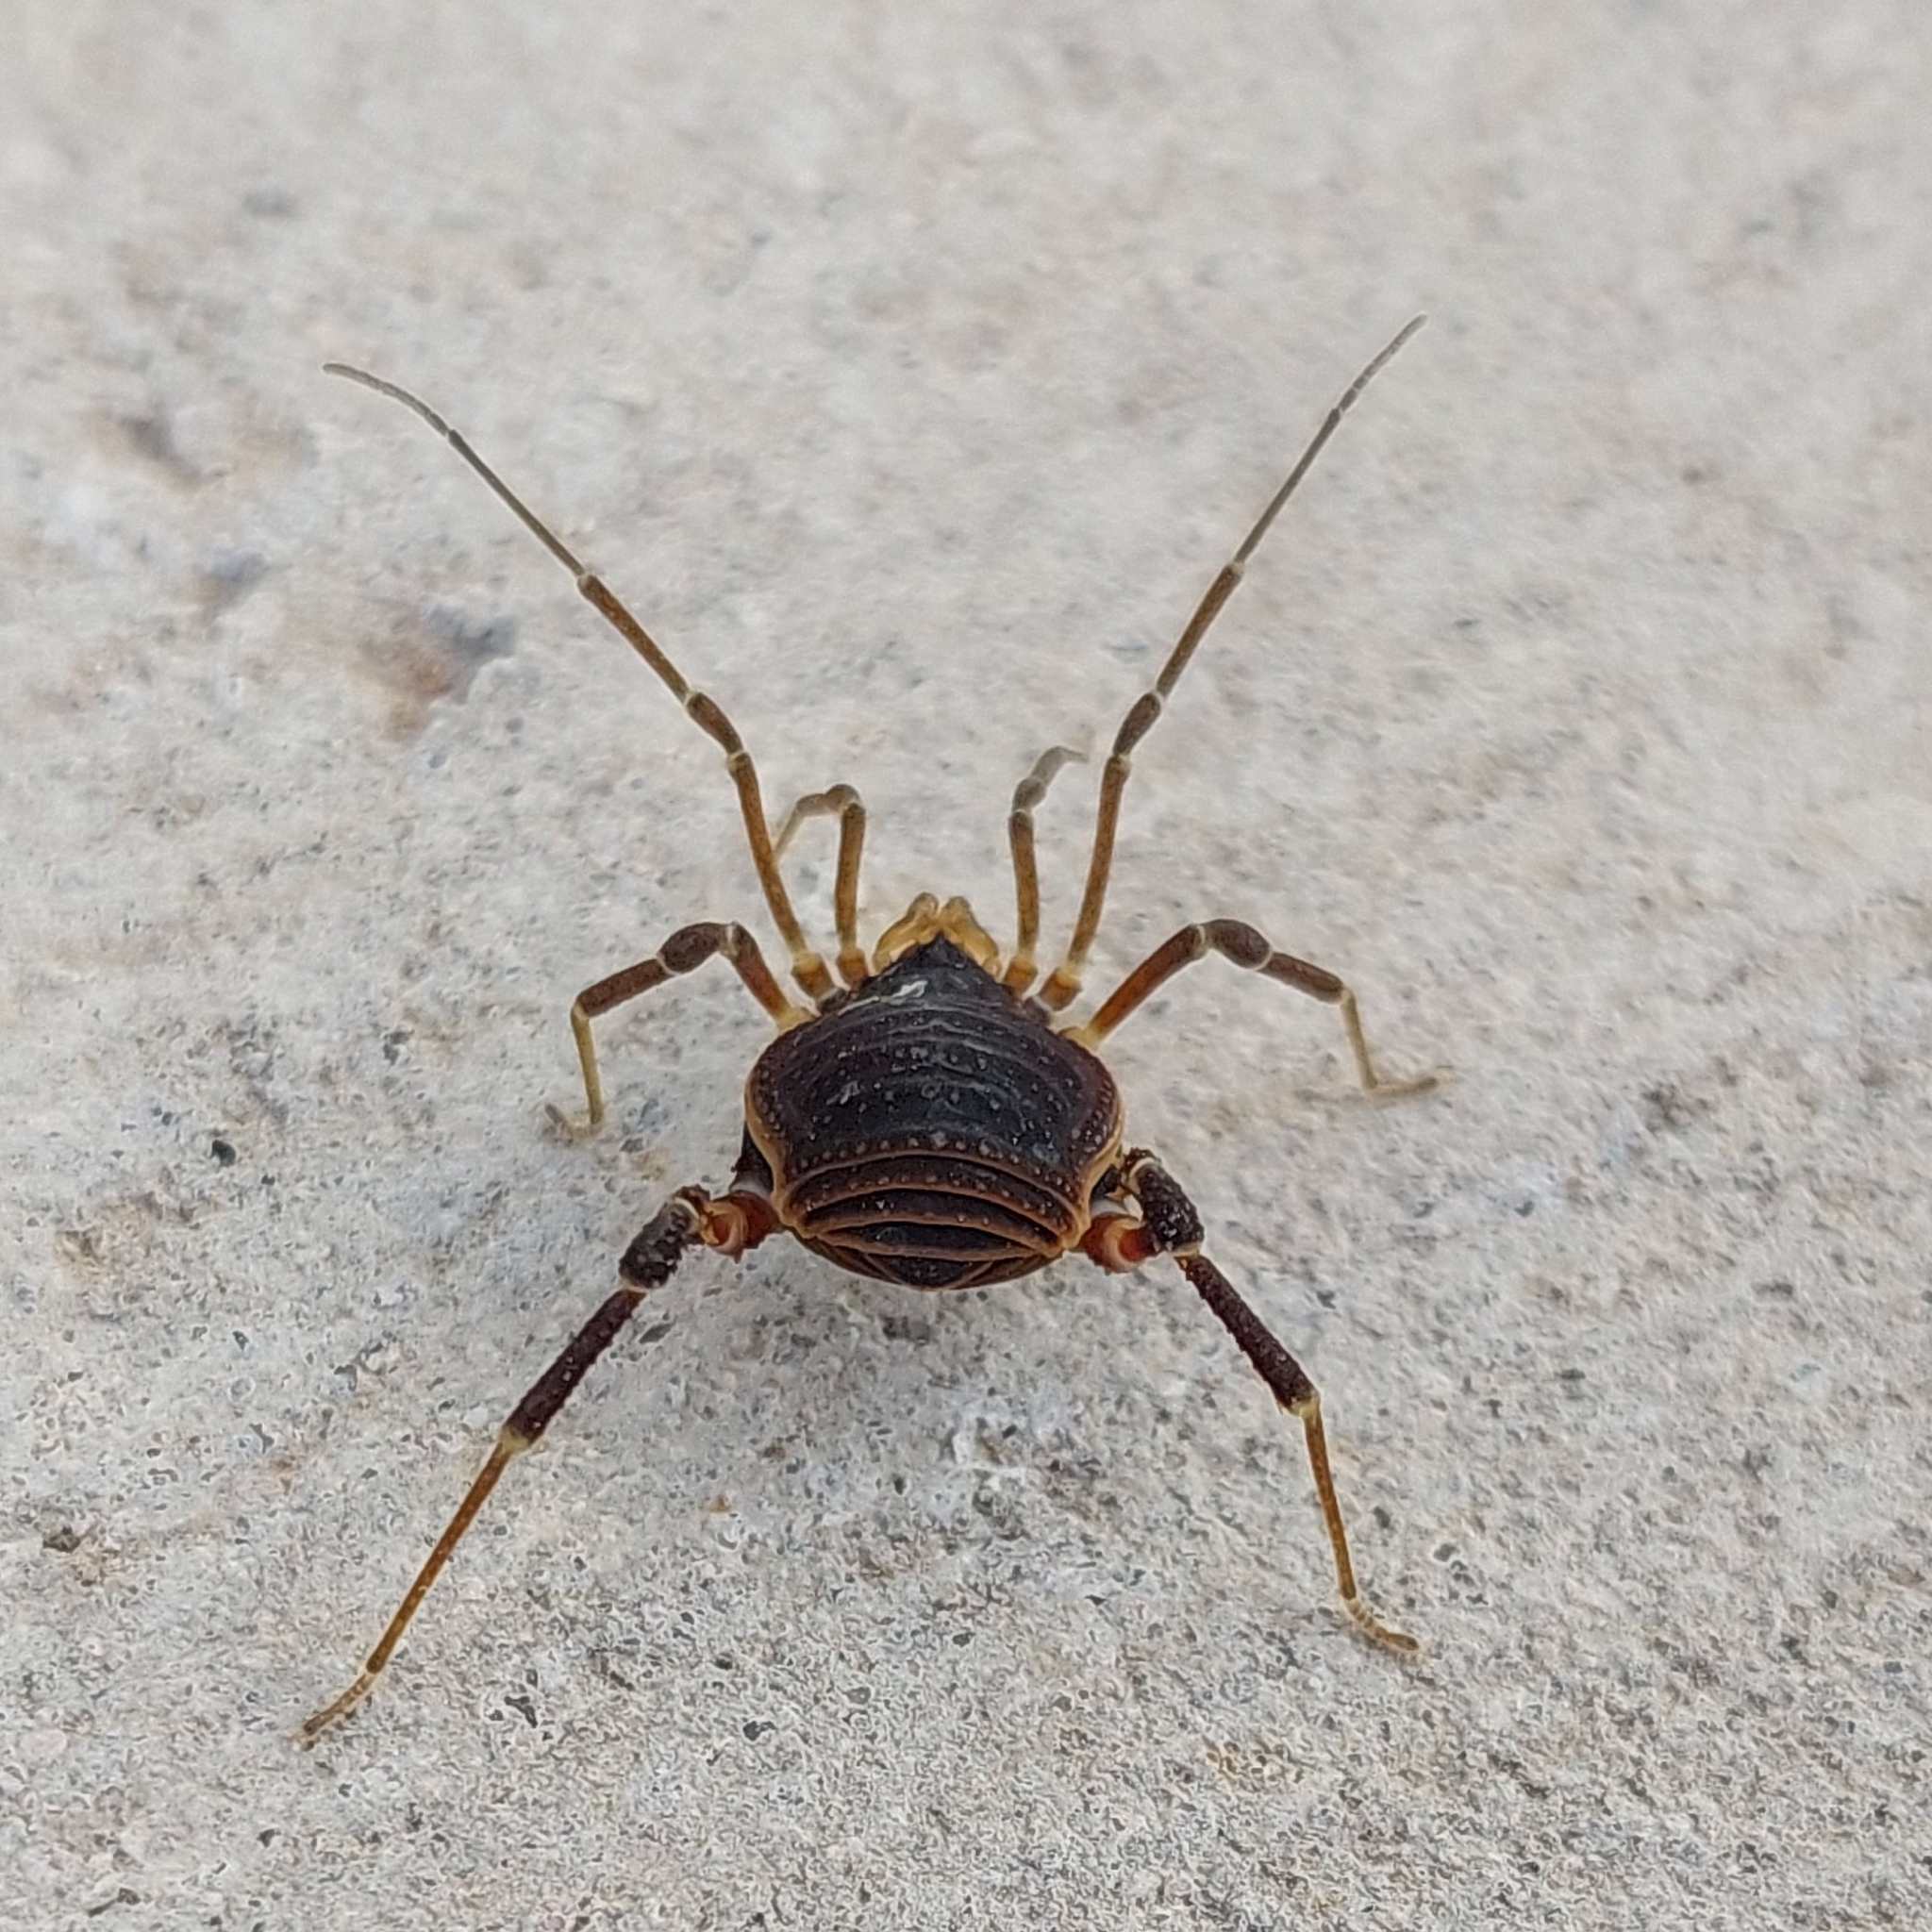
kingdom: Animalia
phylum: Arthropoda
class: Arachnida
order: Opiliones
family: Gonyleptidae
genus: Acanthopachylus
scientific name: Acanthopachylus robustus
